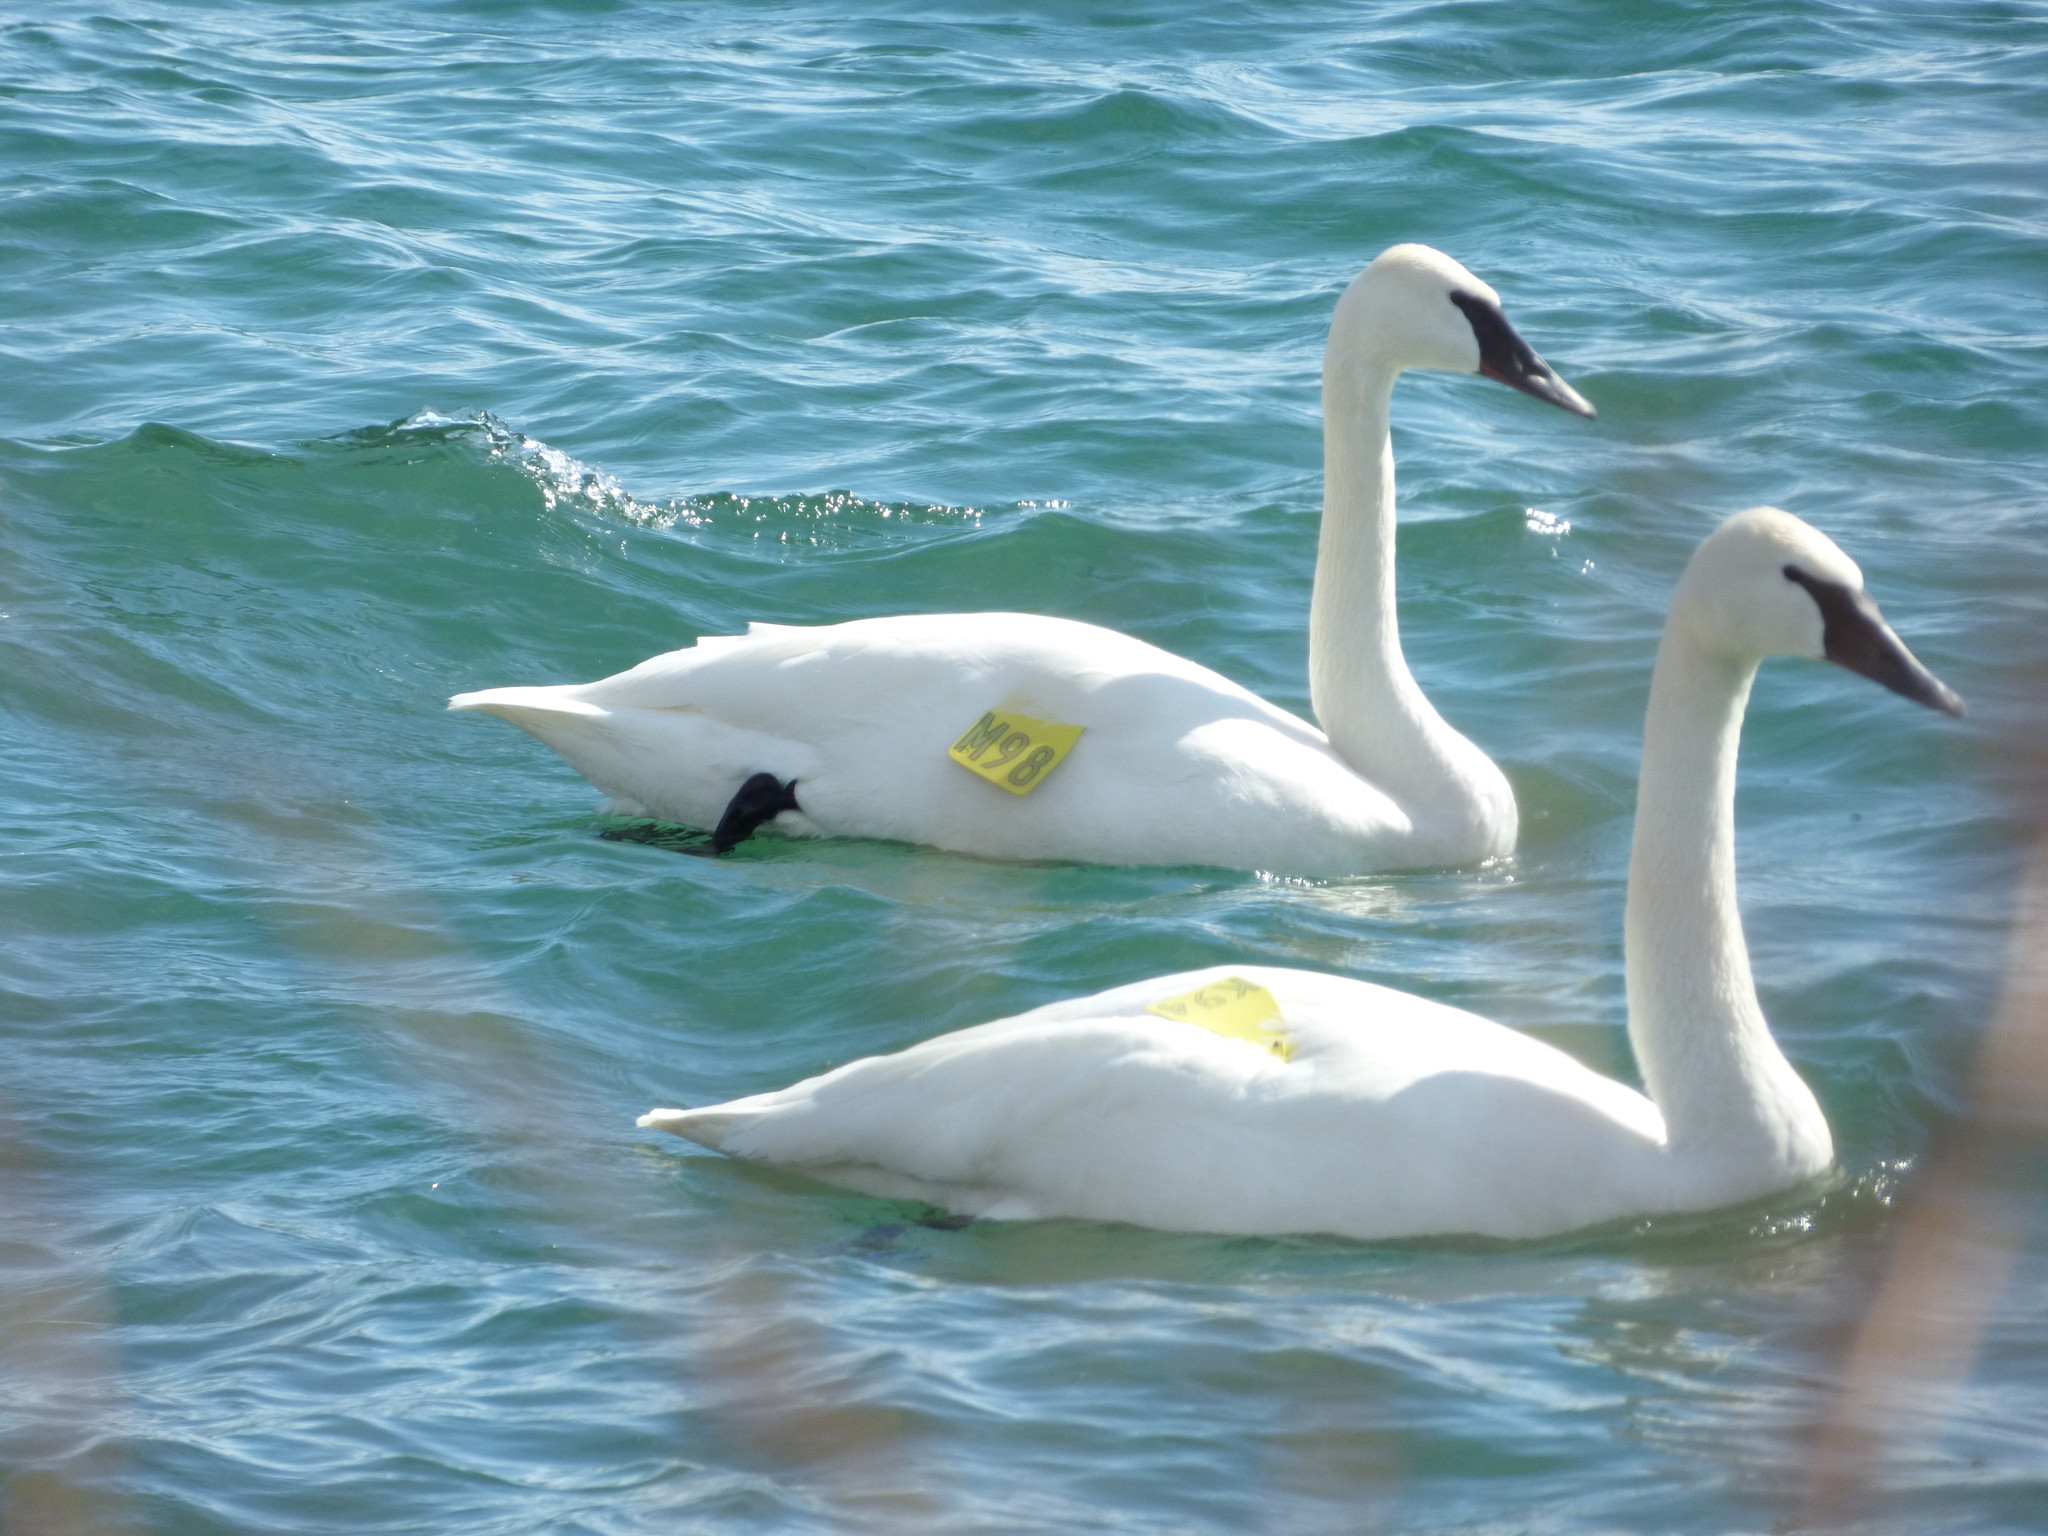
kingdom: Animalia
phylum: Chordata
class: Aves
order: Anseriformes
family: Anatidae
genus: Cygnus
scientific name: Cygnus buccinator
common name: Trumpeter swan
